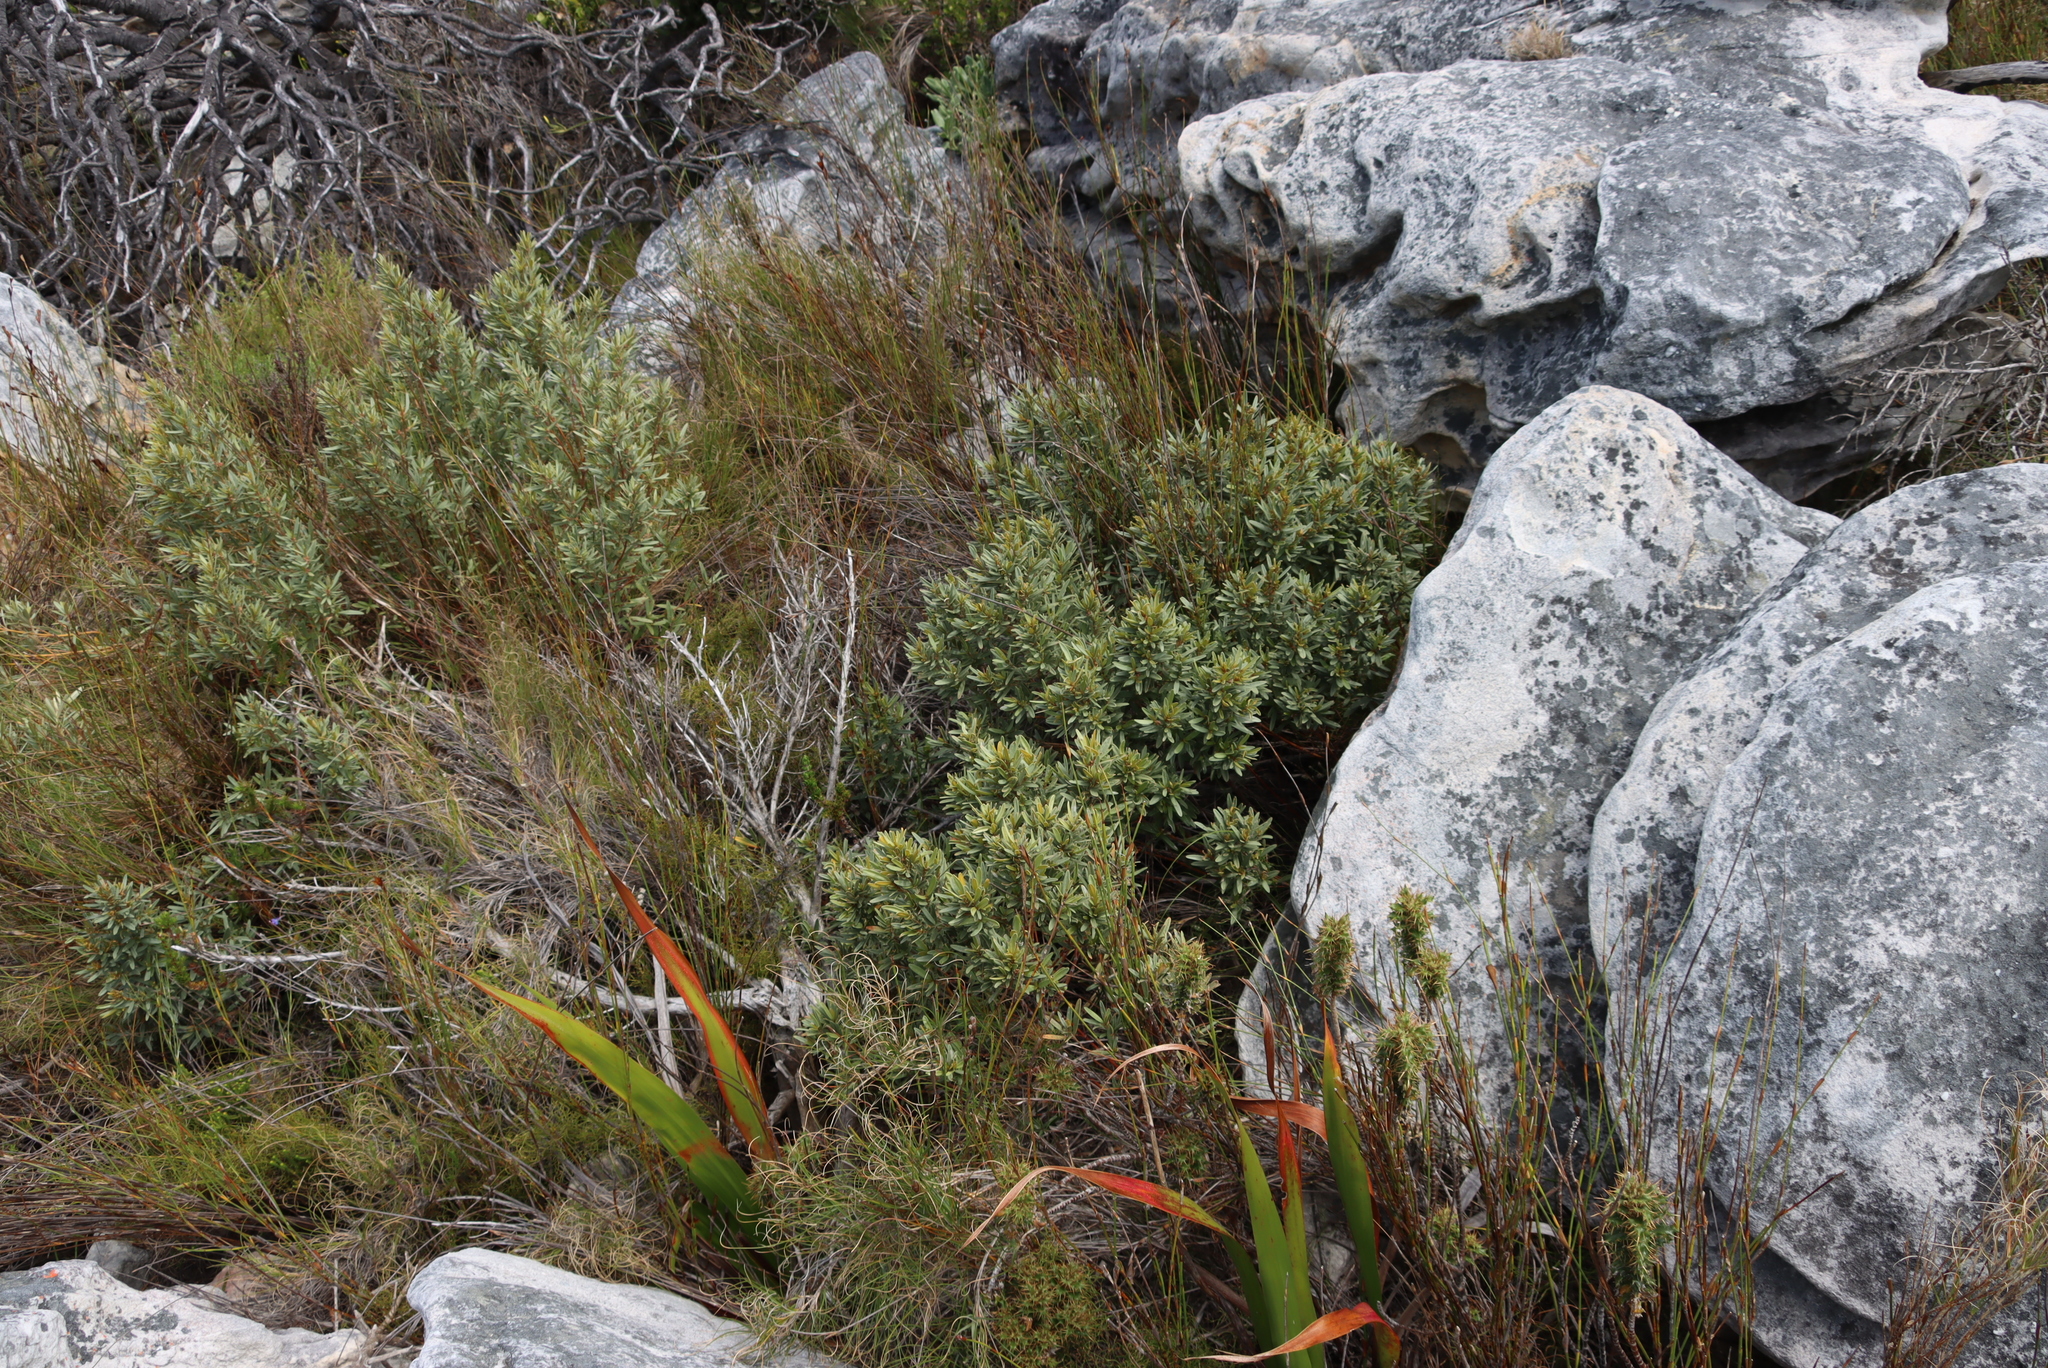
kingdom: Plantae
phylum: Tracheophyta
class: Magnoliopsida
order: Cornales
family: Grubbiaceae
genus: Grubbia
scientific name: Grubbia tomentosa
